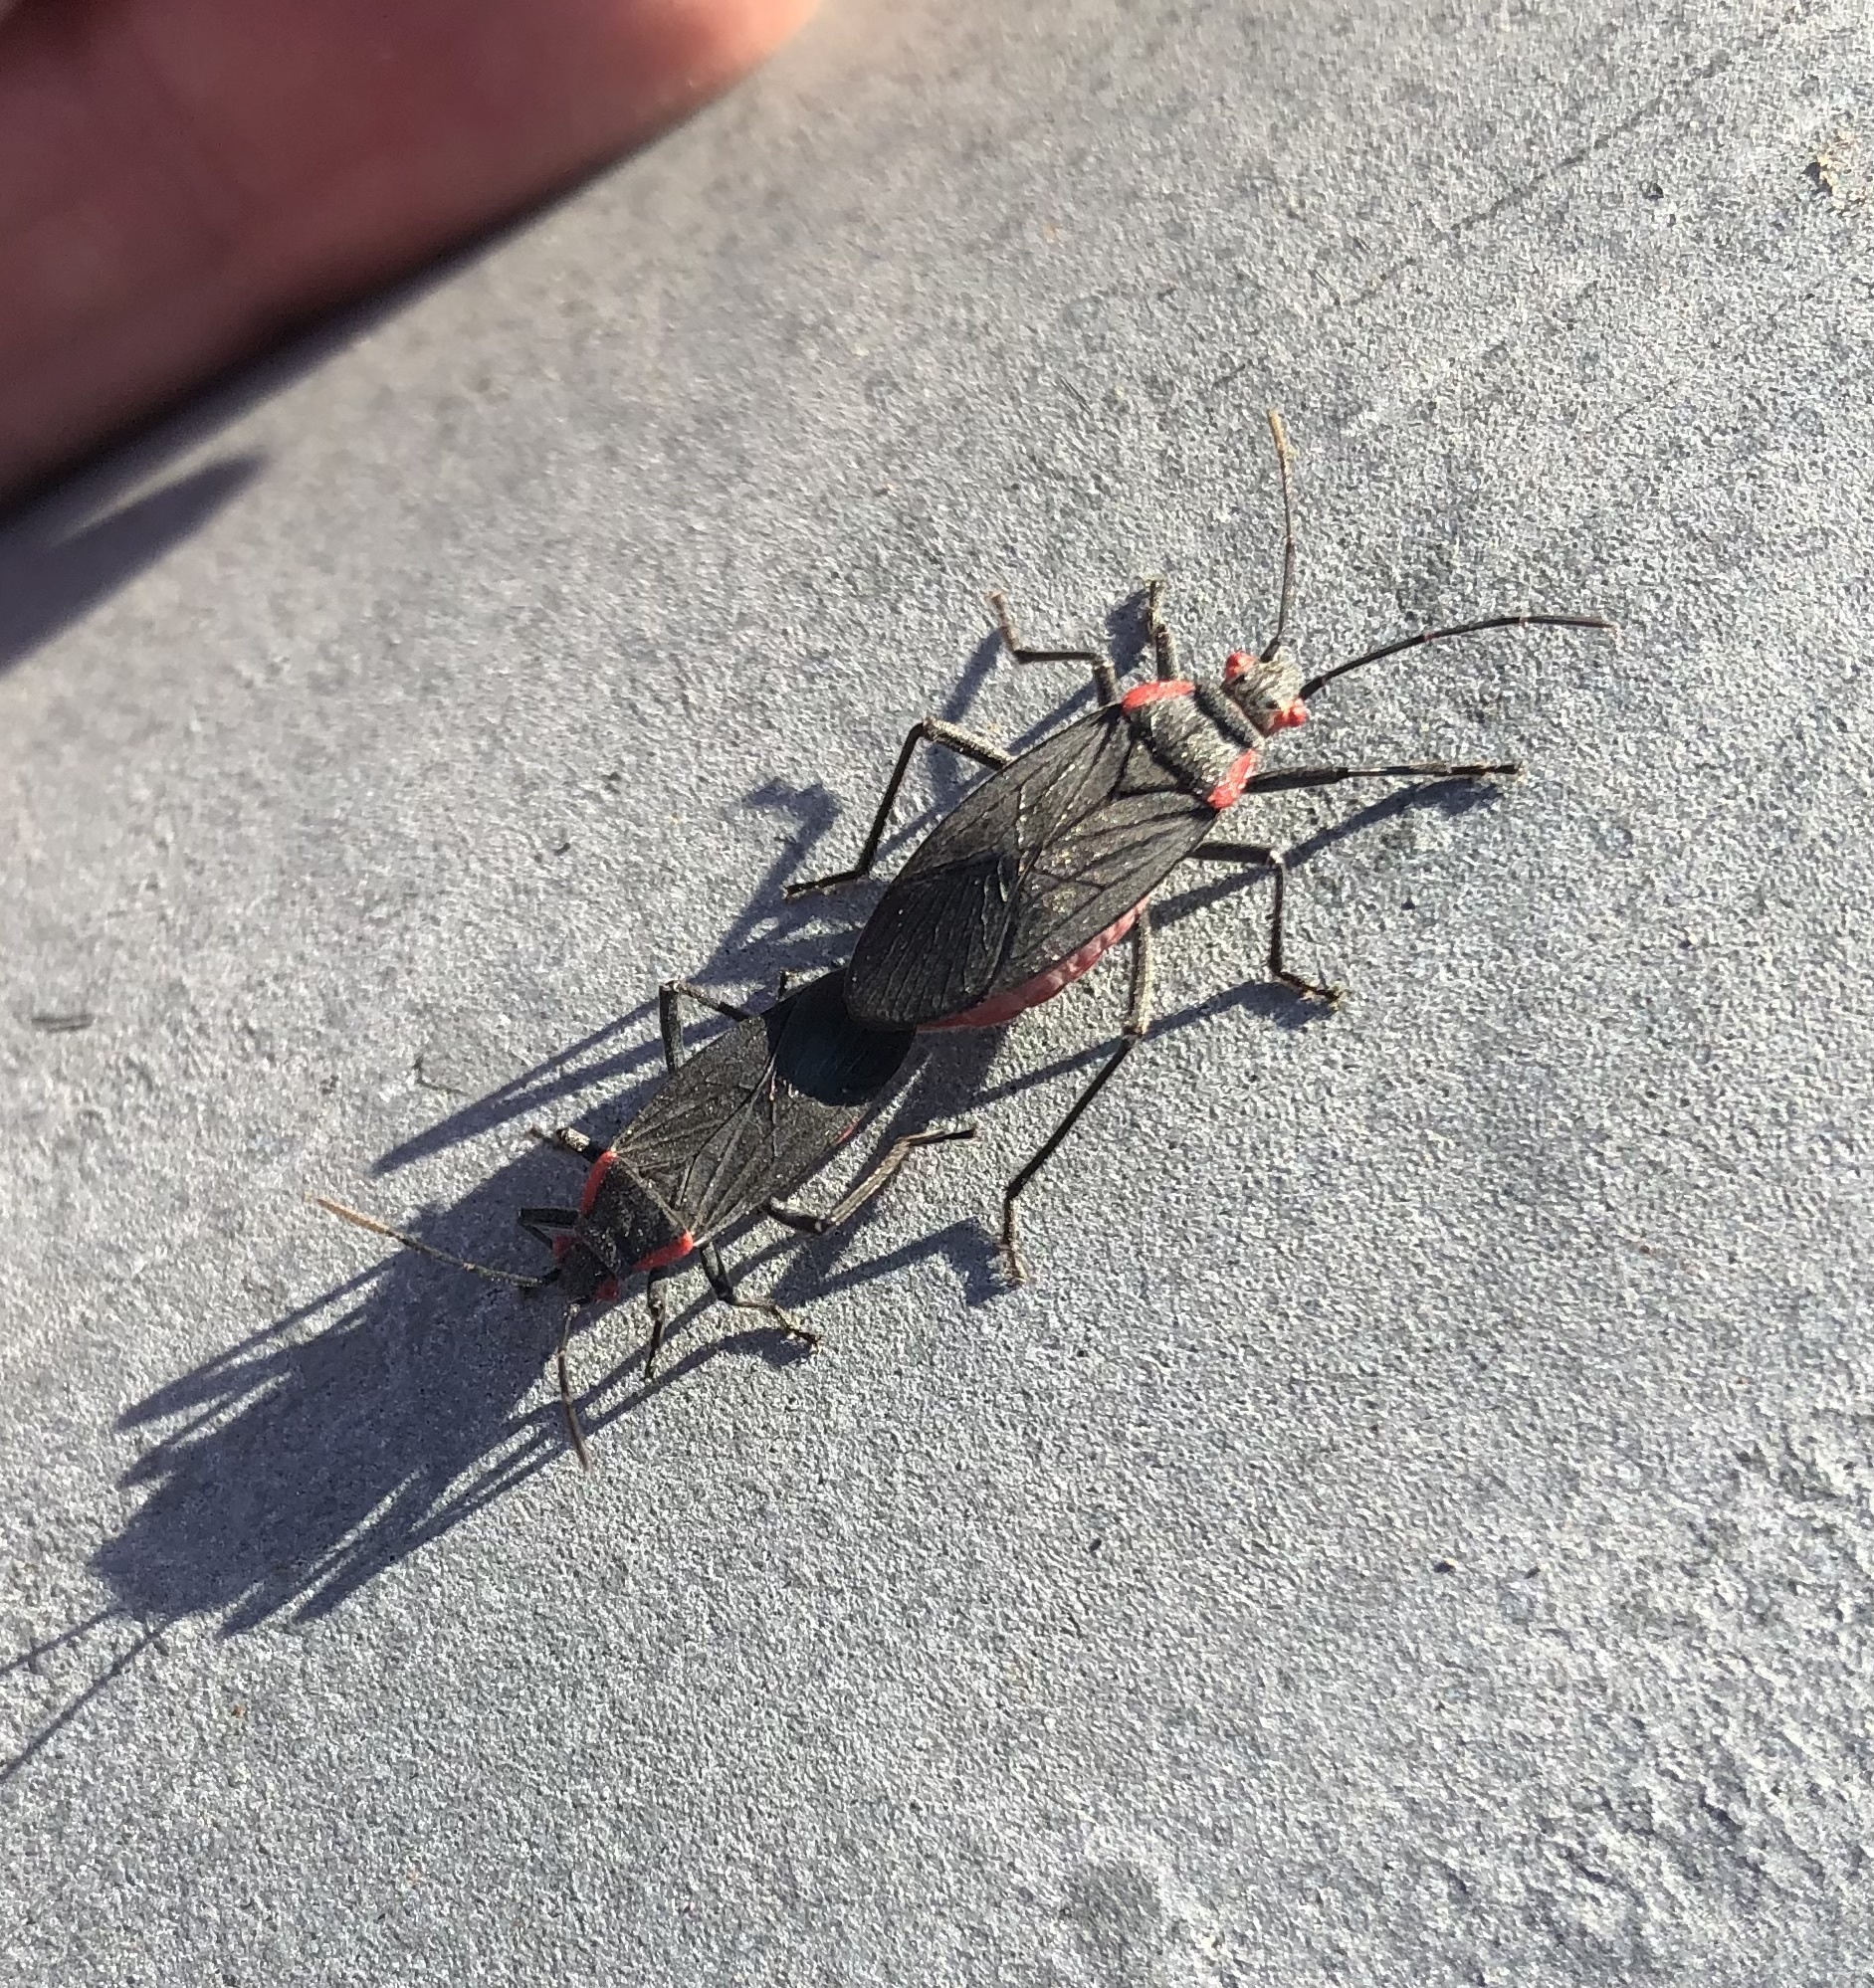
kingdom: Animalia
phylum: Arthropoda
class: Insecta
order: Hemiptera
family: Rhopalidae
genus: Jadera
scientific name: Jadera haematoloma
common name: Red-shouldered bug
